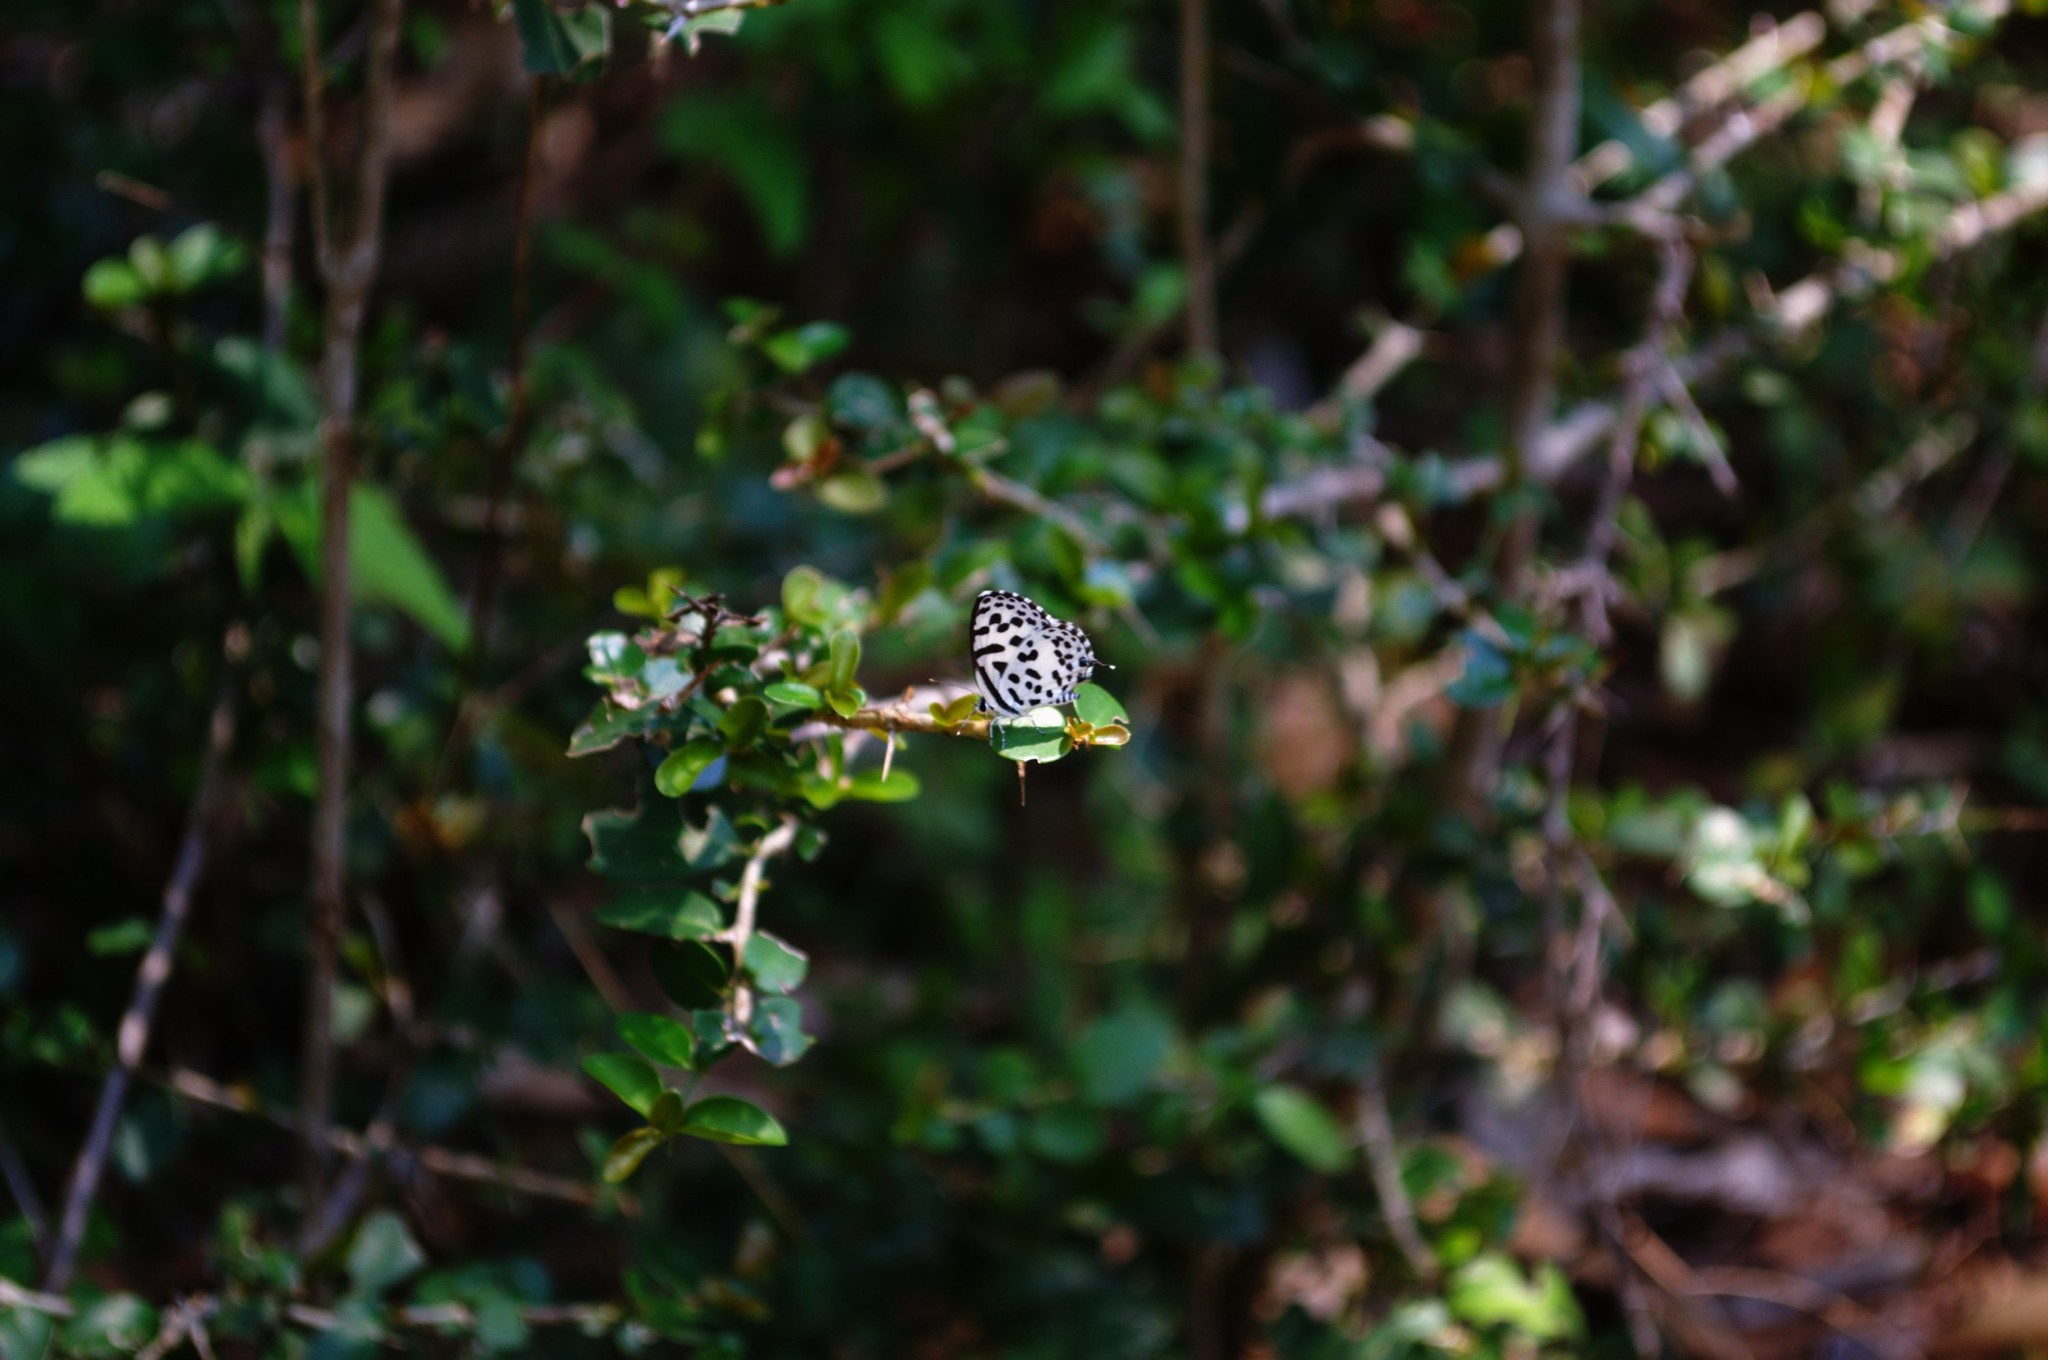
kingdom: Animalia
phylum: Arthropoda
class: Insecta
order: Lepidoptera
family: Lycaenidae
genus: Castalius
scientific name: Castalius rosimon
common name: Common pierrot
